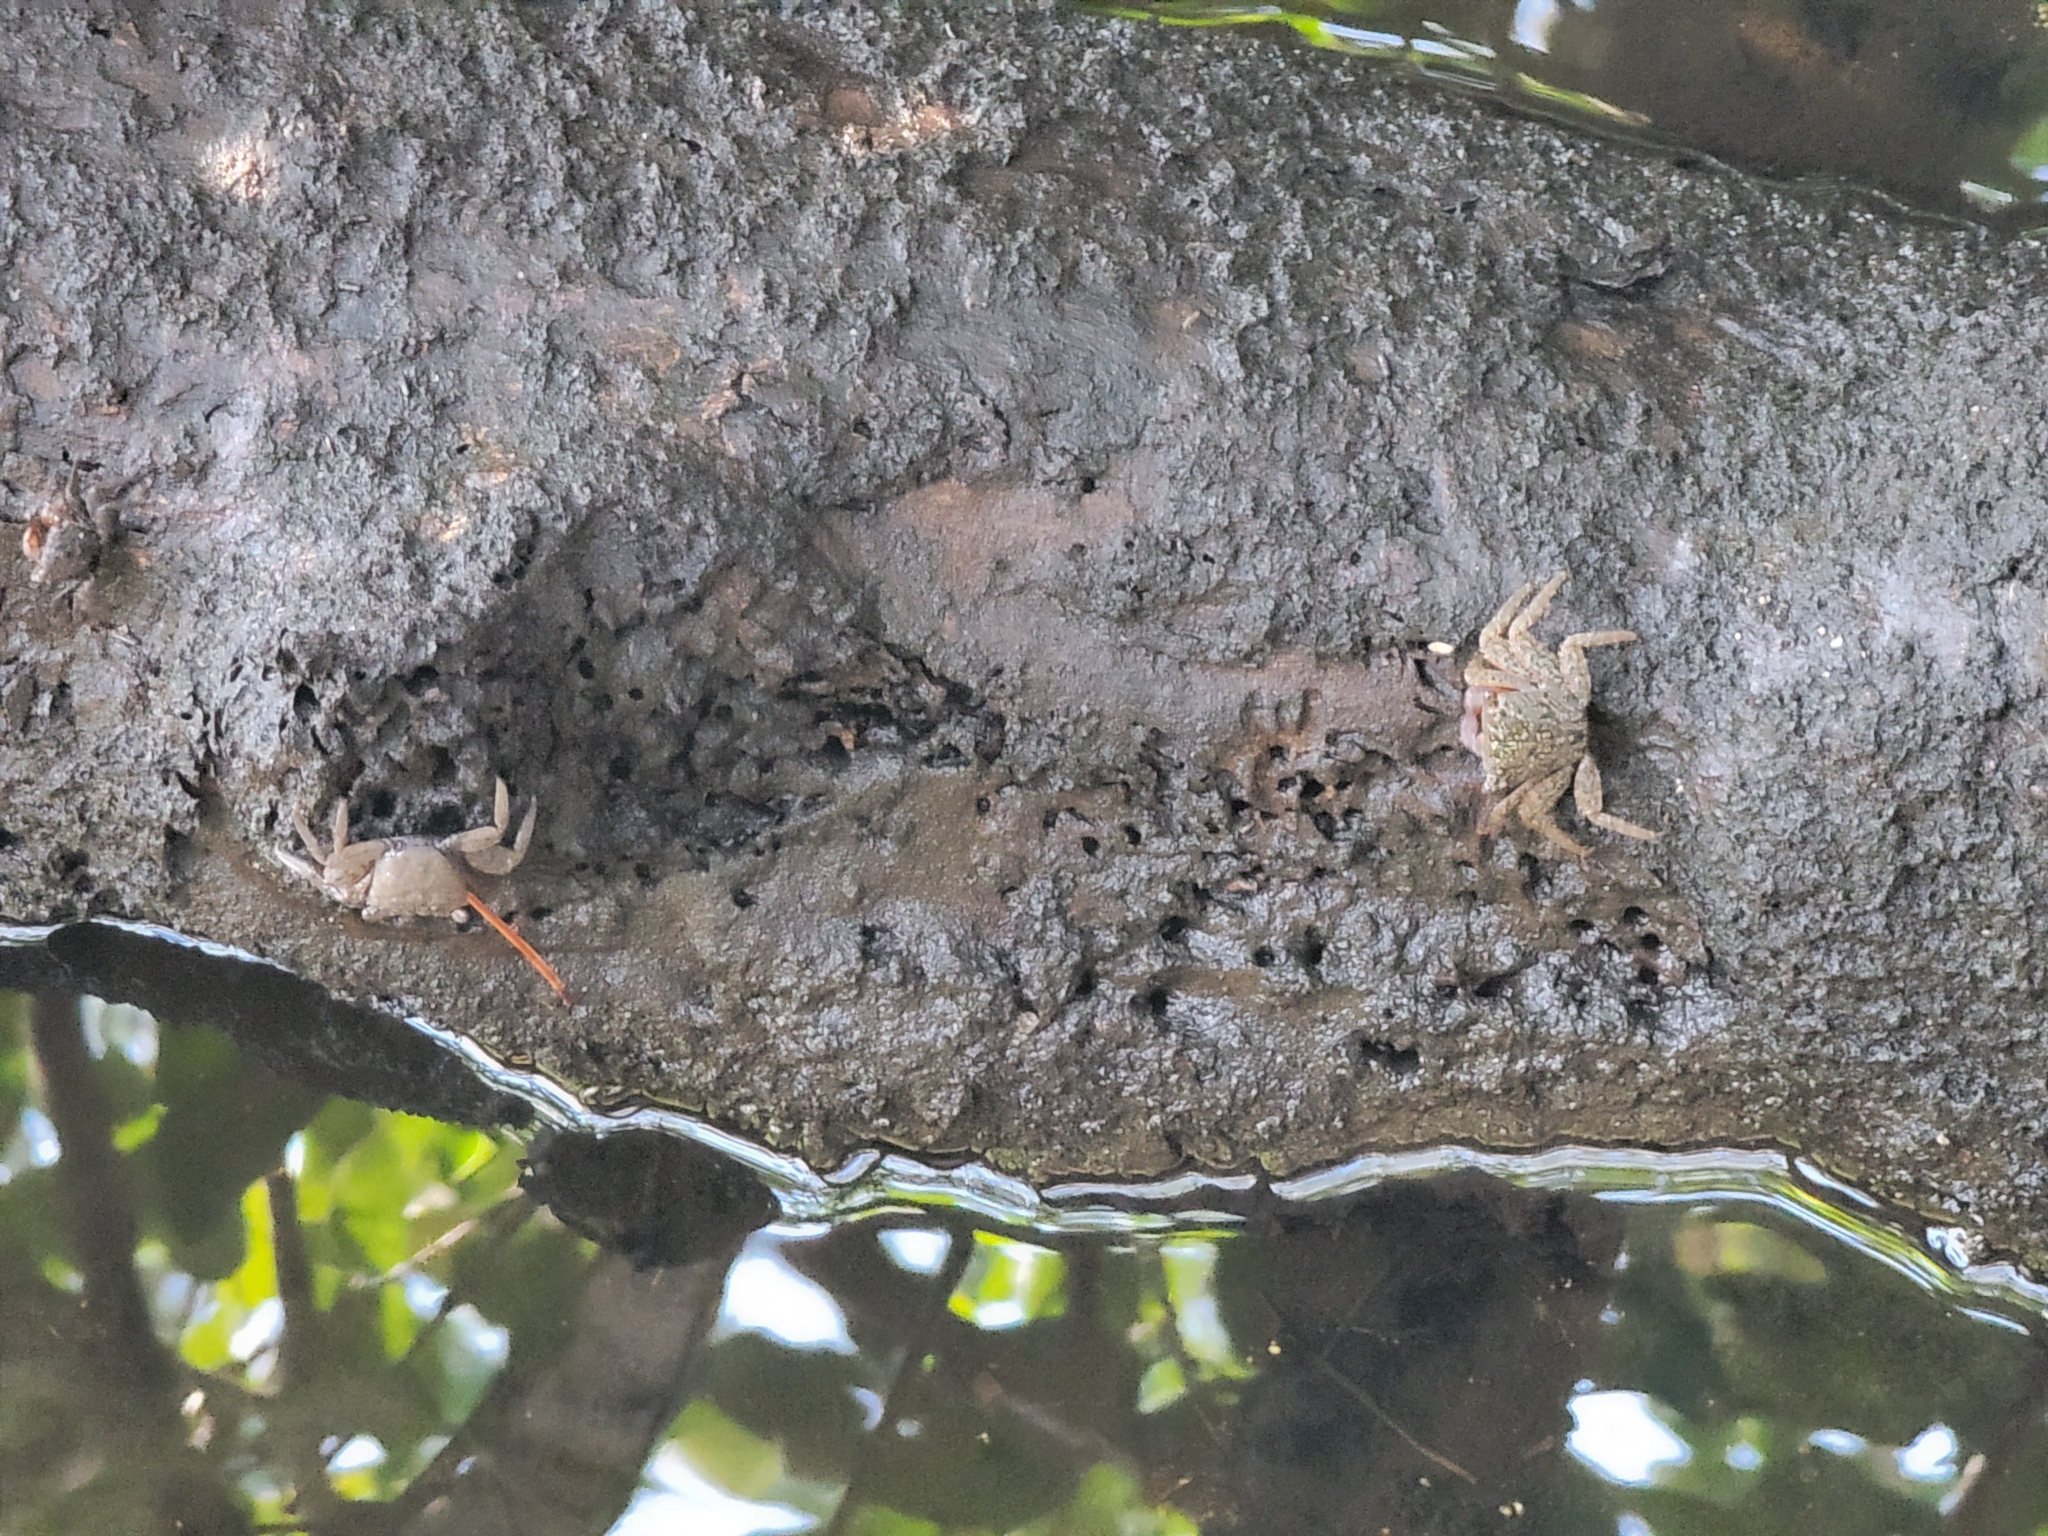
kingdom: Animalia
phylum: Arthropoda
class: Malacostraca
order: Decapoda
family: Sesarmidae
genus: Aratus
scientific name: Aratus pisonii
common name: Mangrove crab
